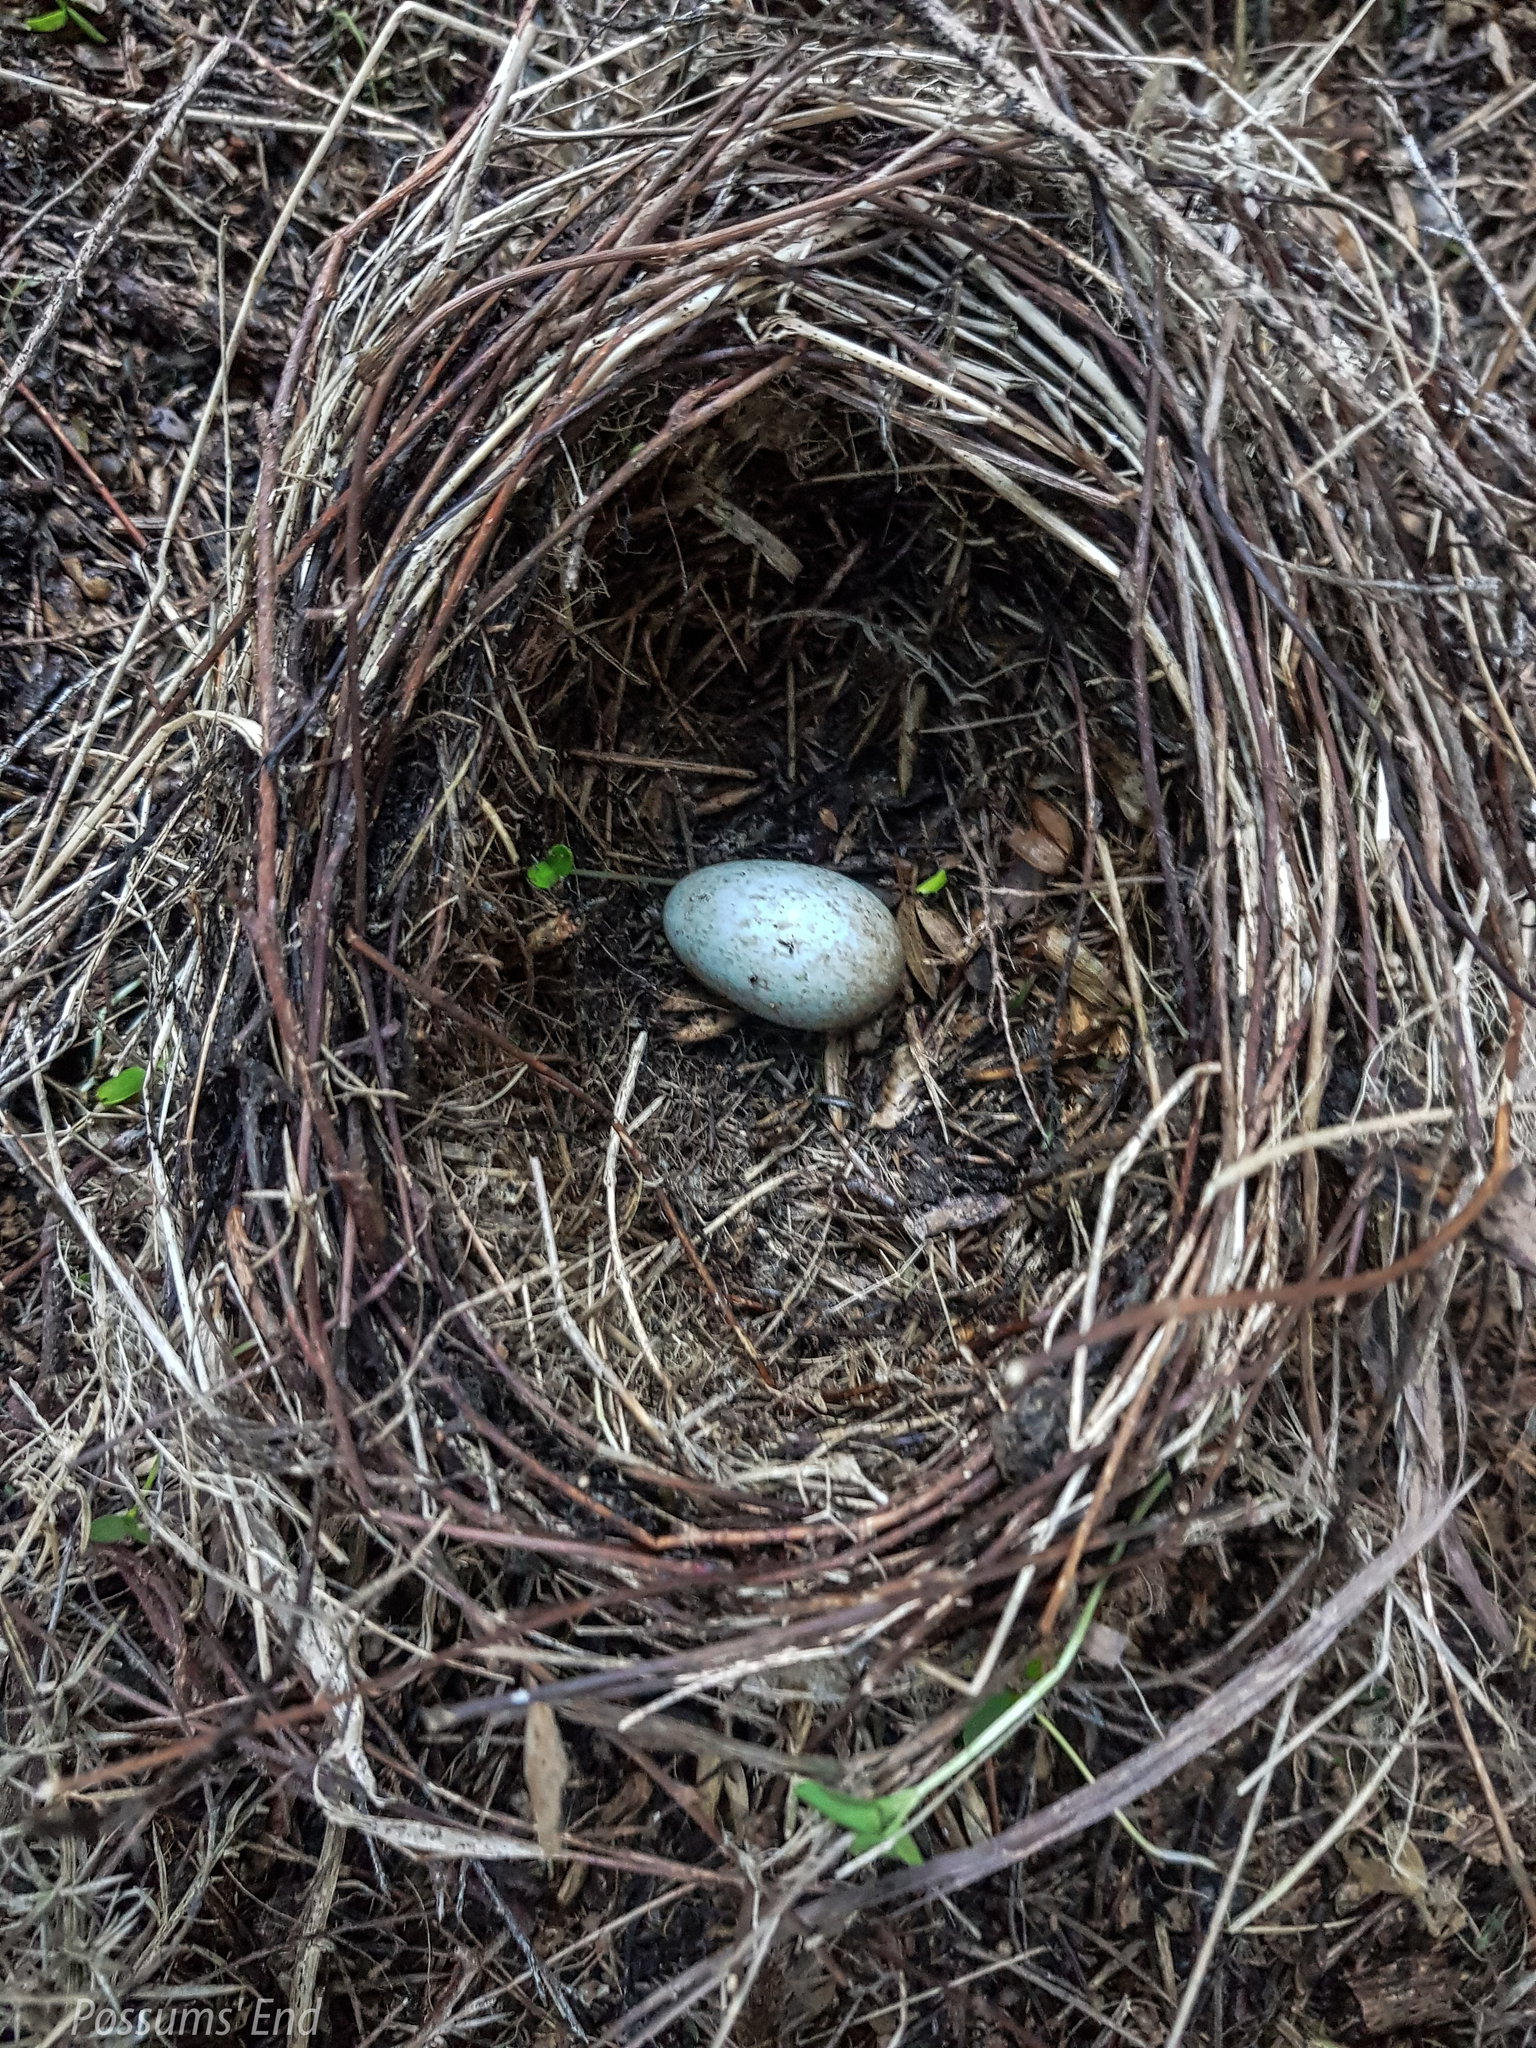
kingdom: Animalia
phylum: Chordata
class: Aves
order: Passeriformes
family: Turdidae
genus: Turdus
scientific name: Turdus merula
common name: Common blackbird
